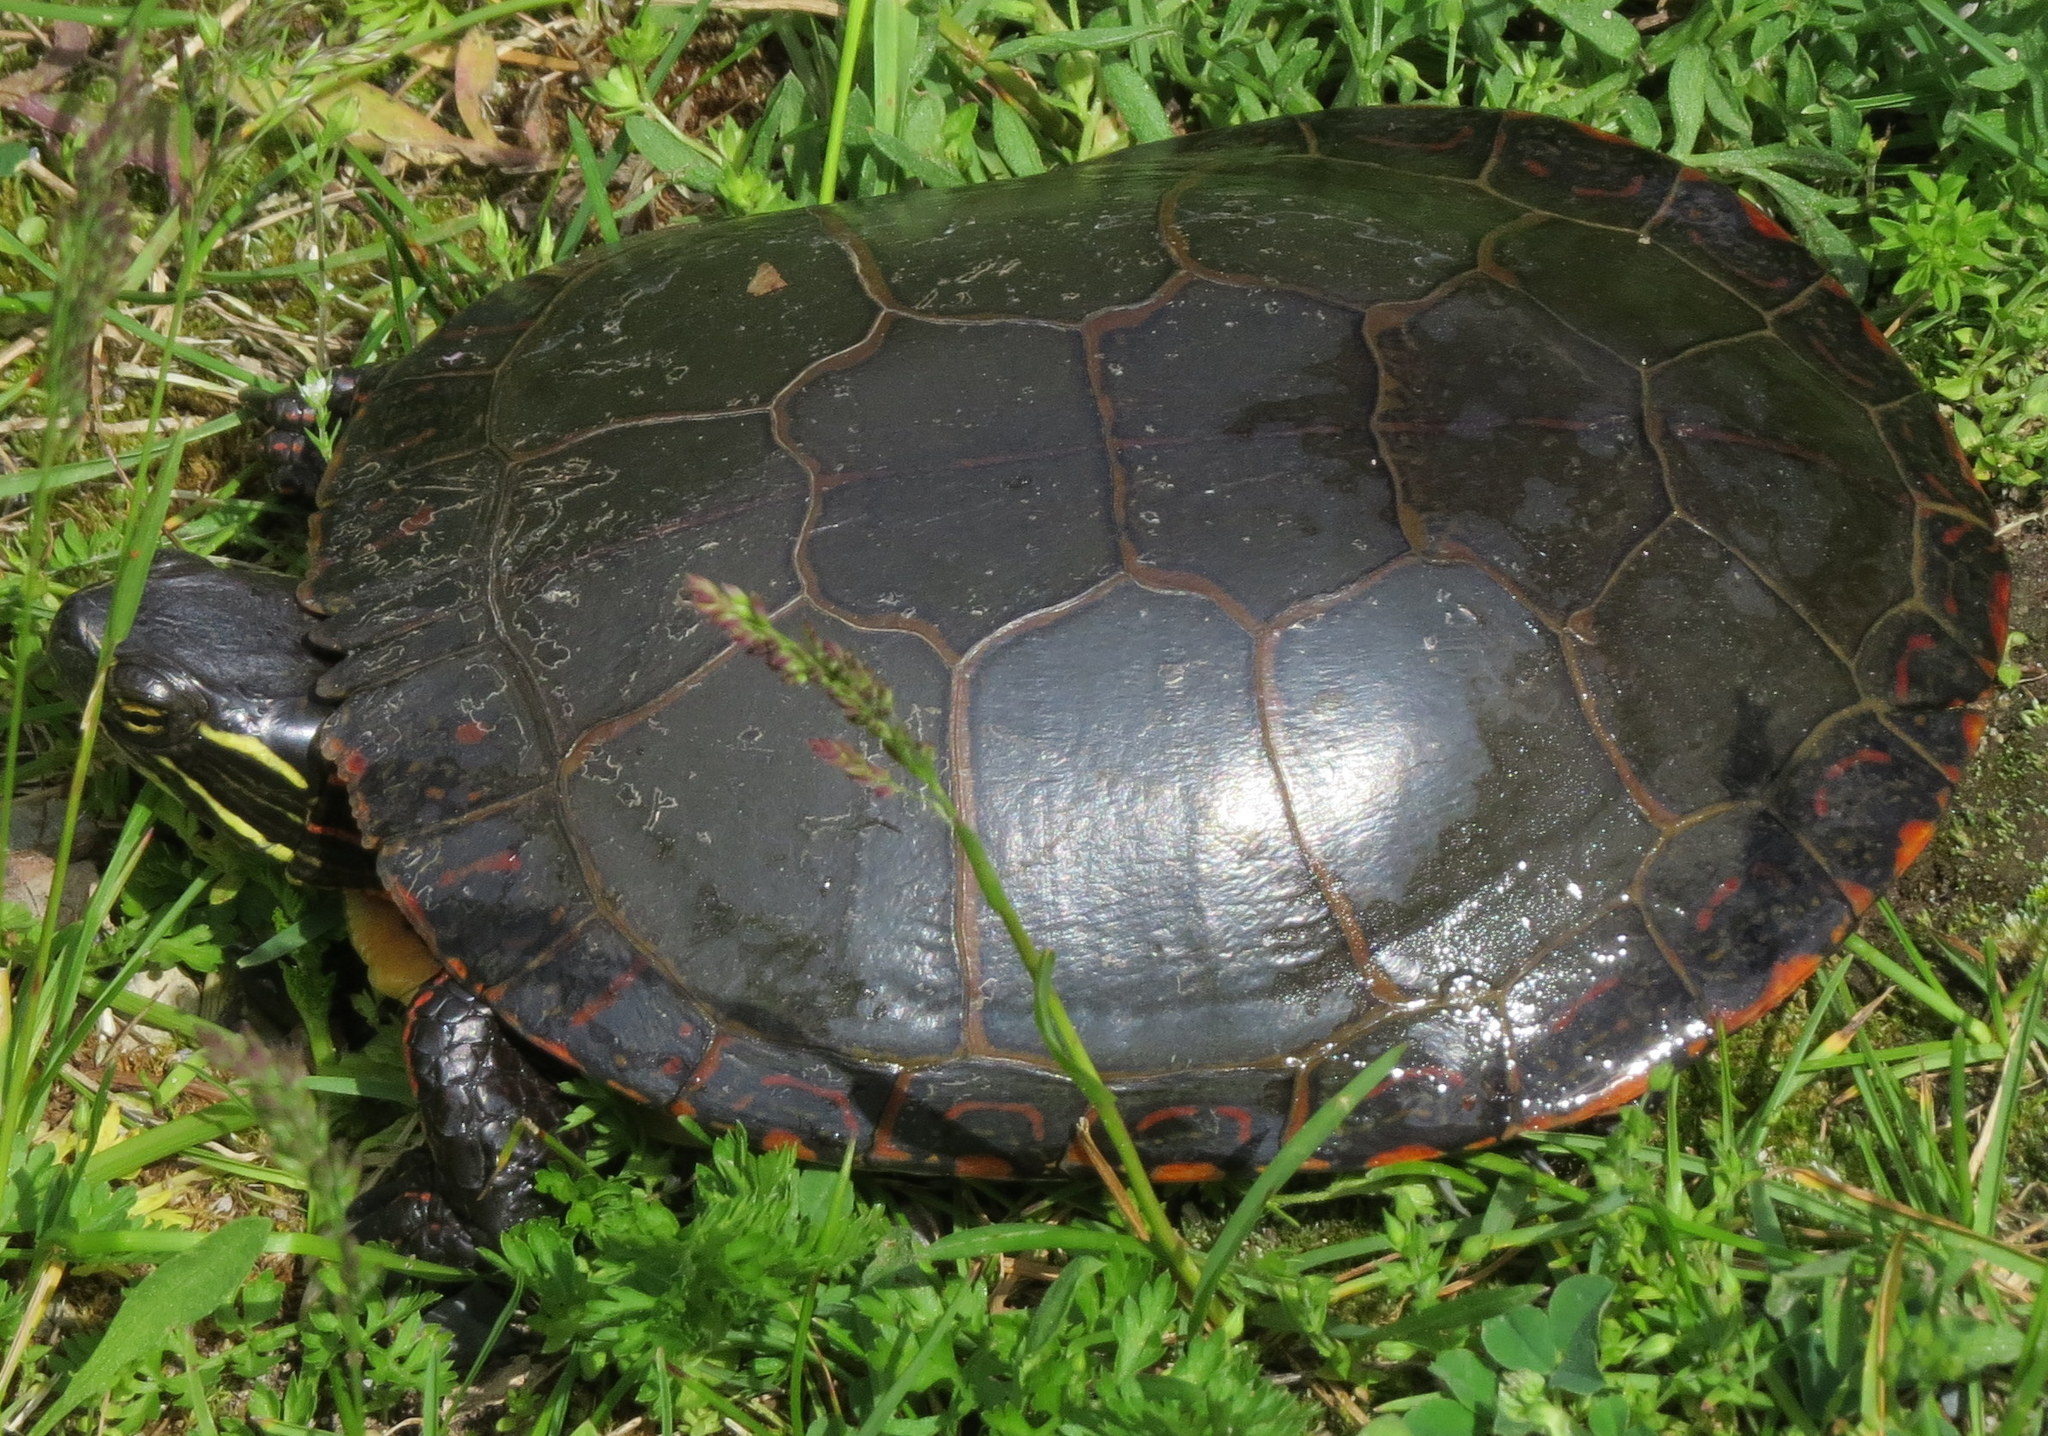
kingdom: Animalia
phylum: Chordata
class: Testudines
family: Emydidae
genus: Chrysemys
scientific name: Chrysemys picta
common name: Painted turtle
